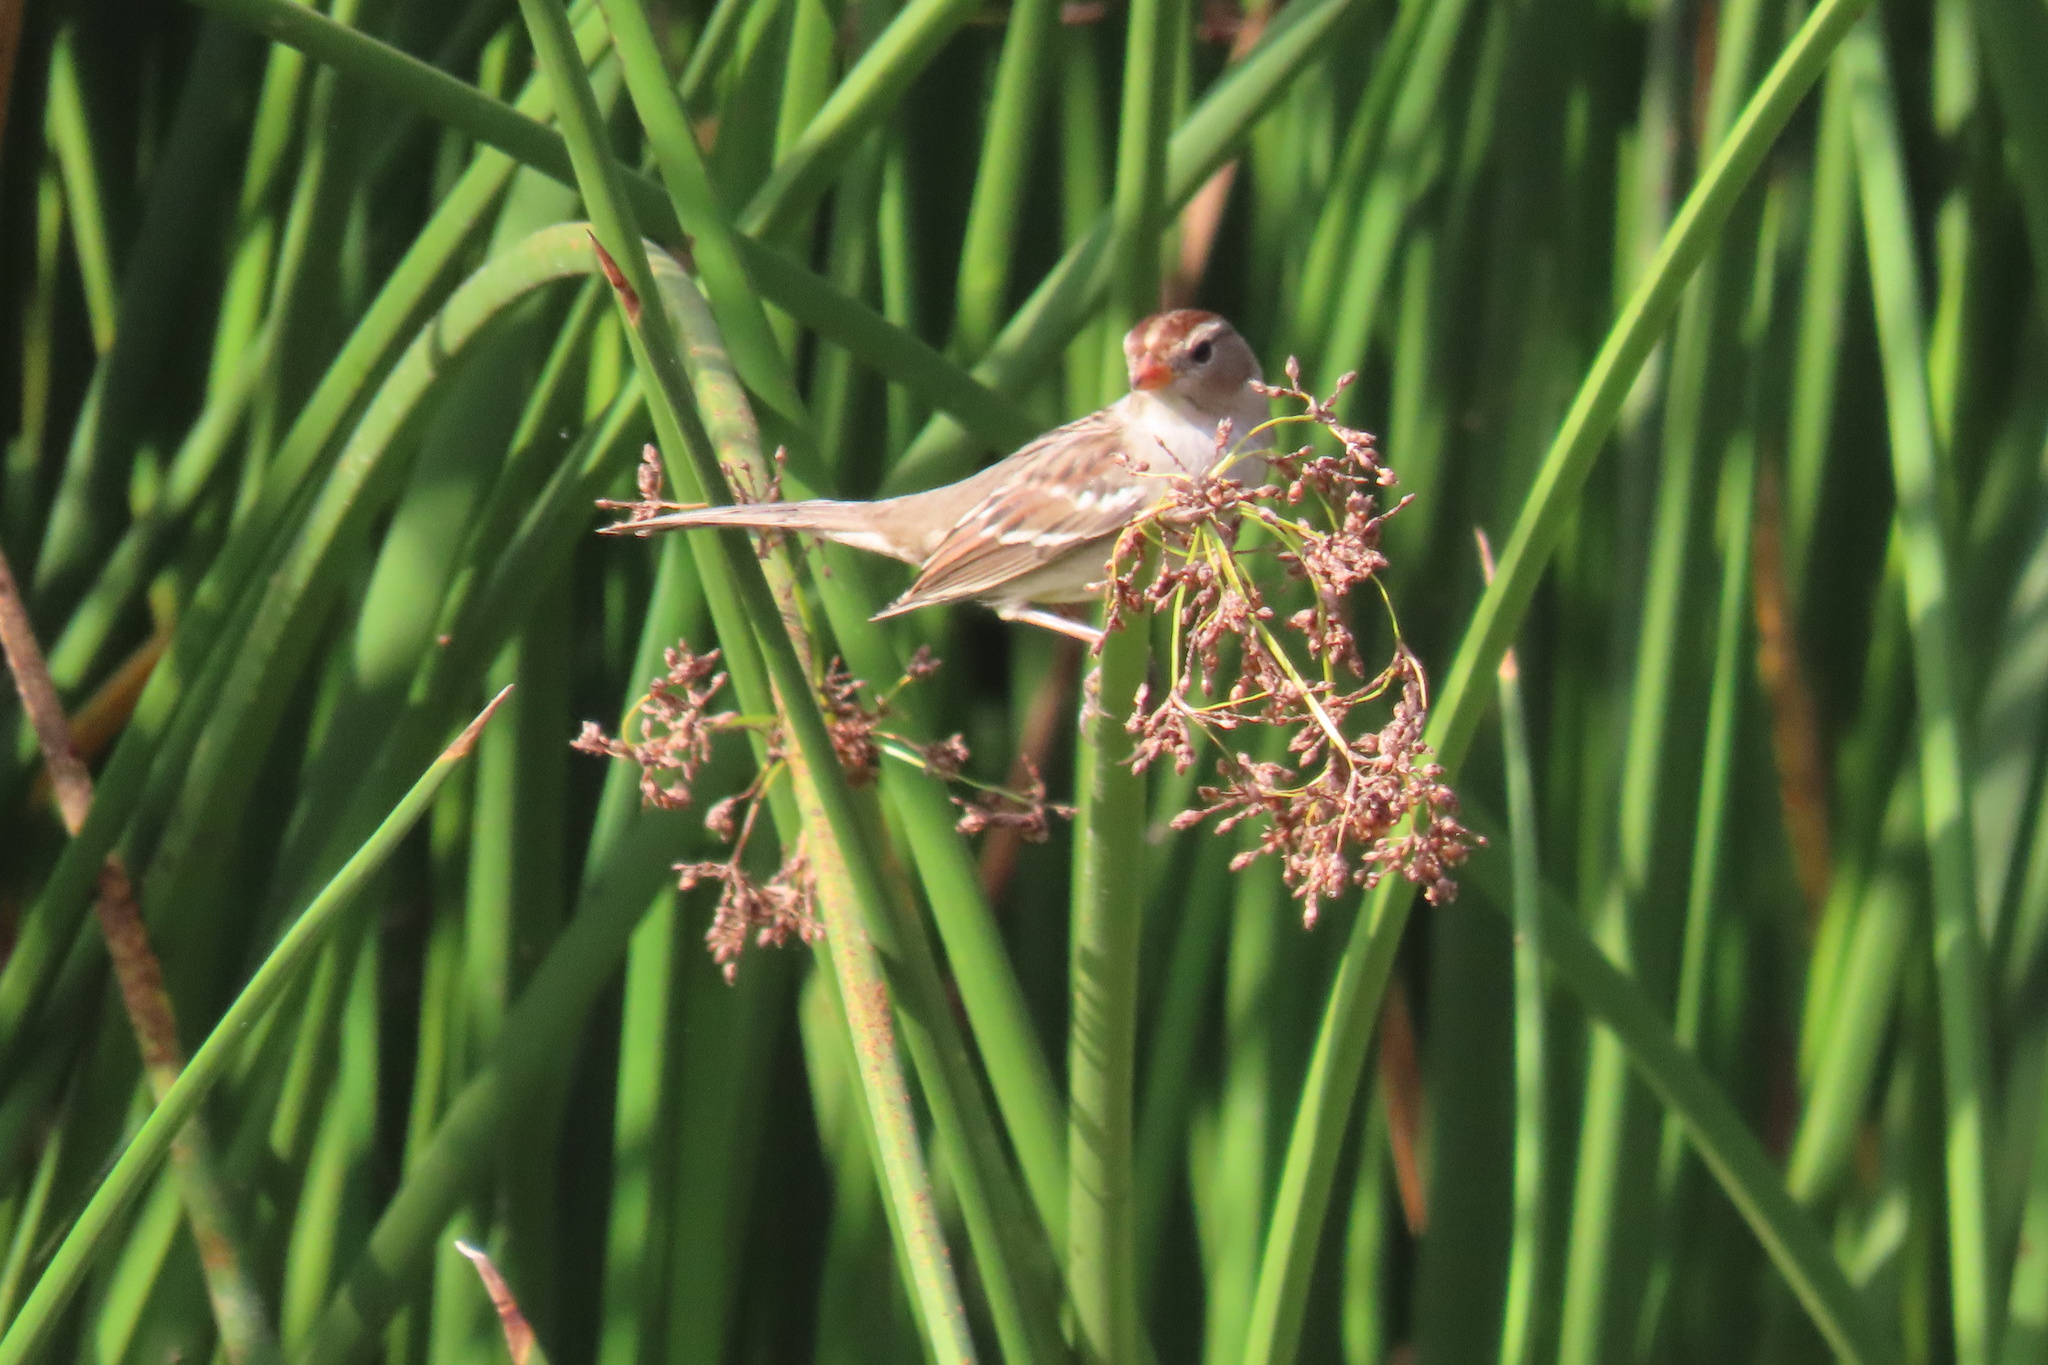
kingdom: Animalia
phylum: Chordata
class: Aves
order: Passeriformes
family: Passerellidae
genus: Zonotrichia
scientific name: Zonotrichia leucophrys
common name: White-crowned sparrow
